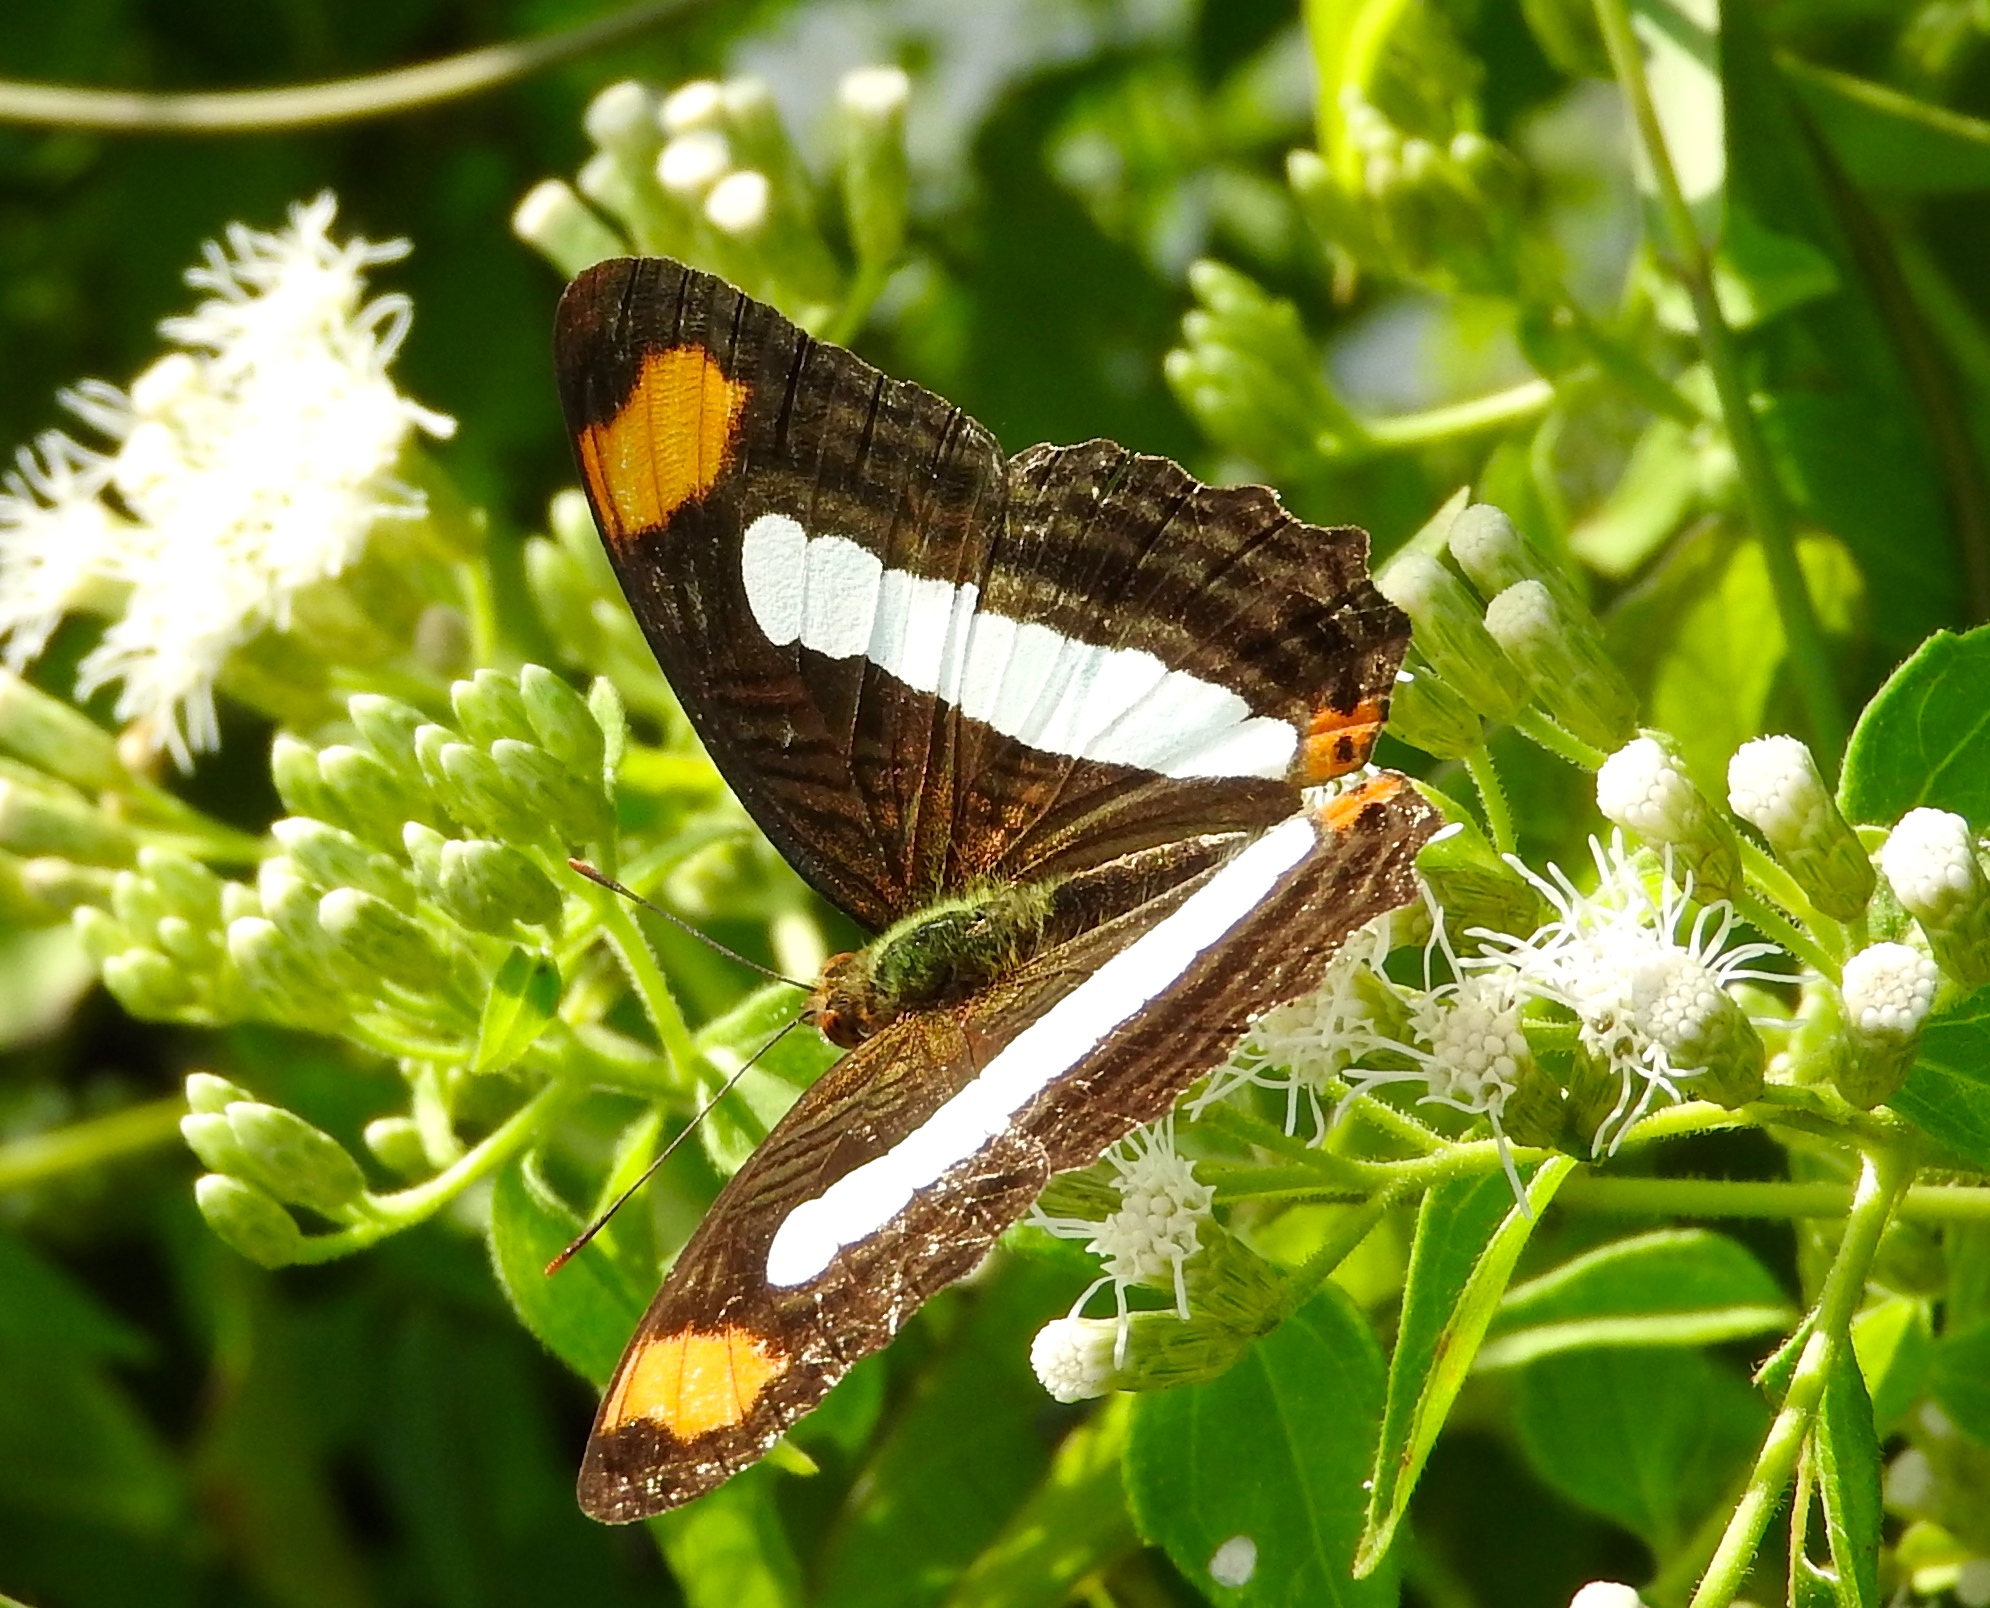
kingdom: Animalia
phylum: Arthropoda
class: Insecta
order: Lepidoptera
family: Nymphalidae
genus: Limenitis
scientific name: Limenitis iphiclus
